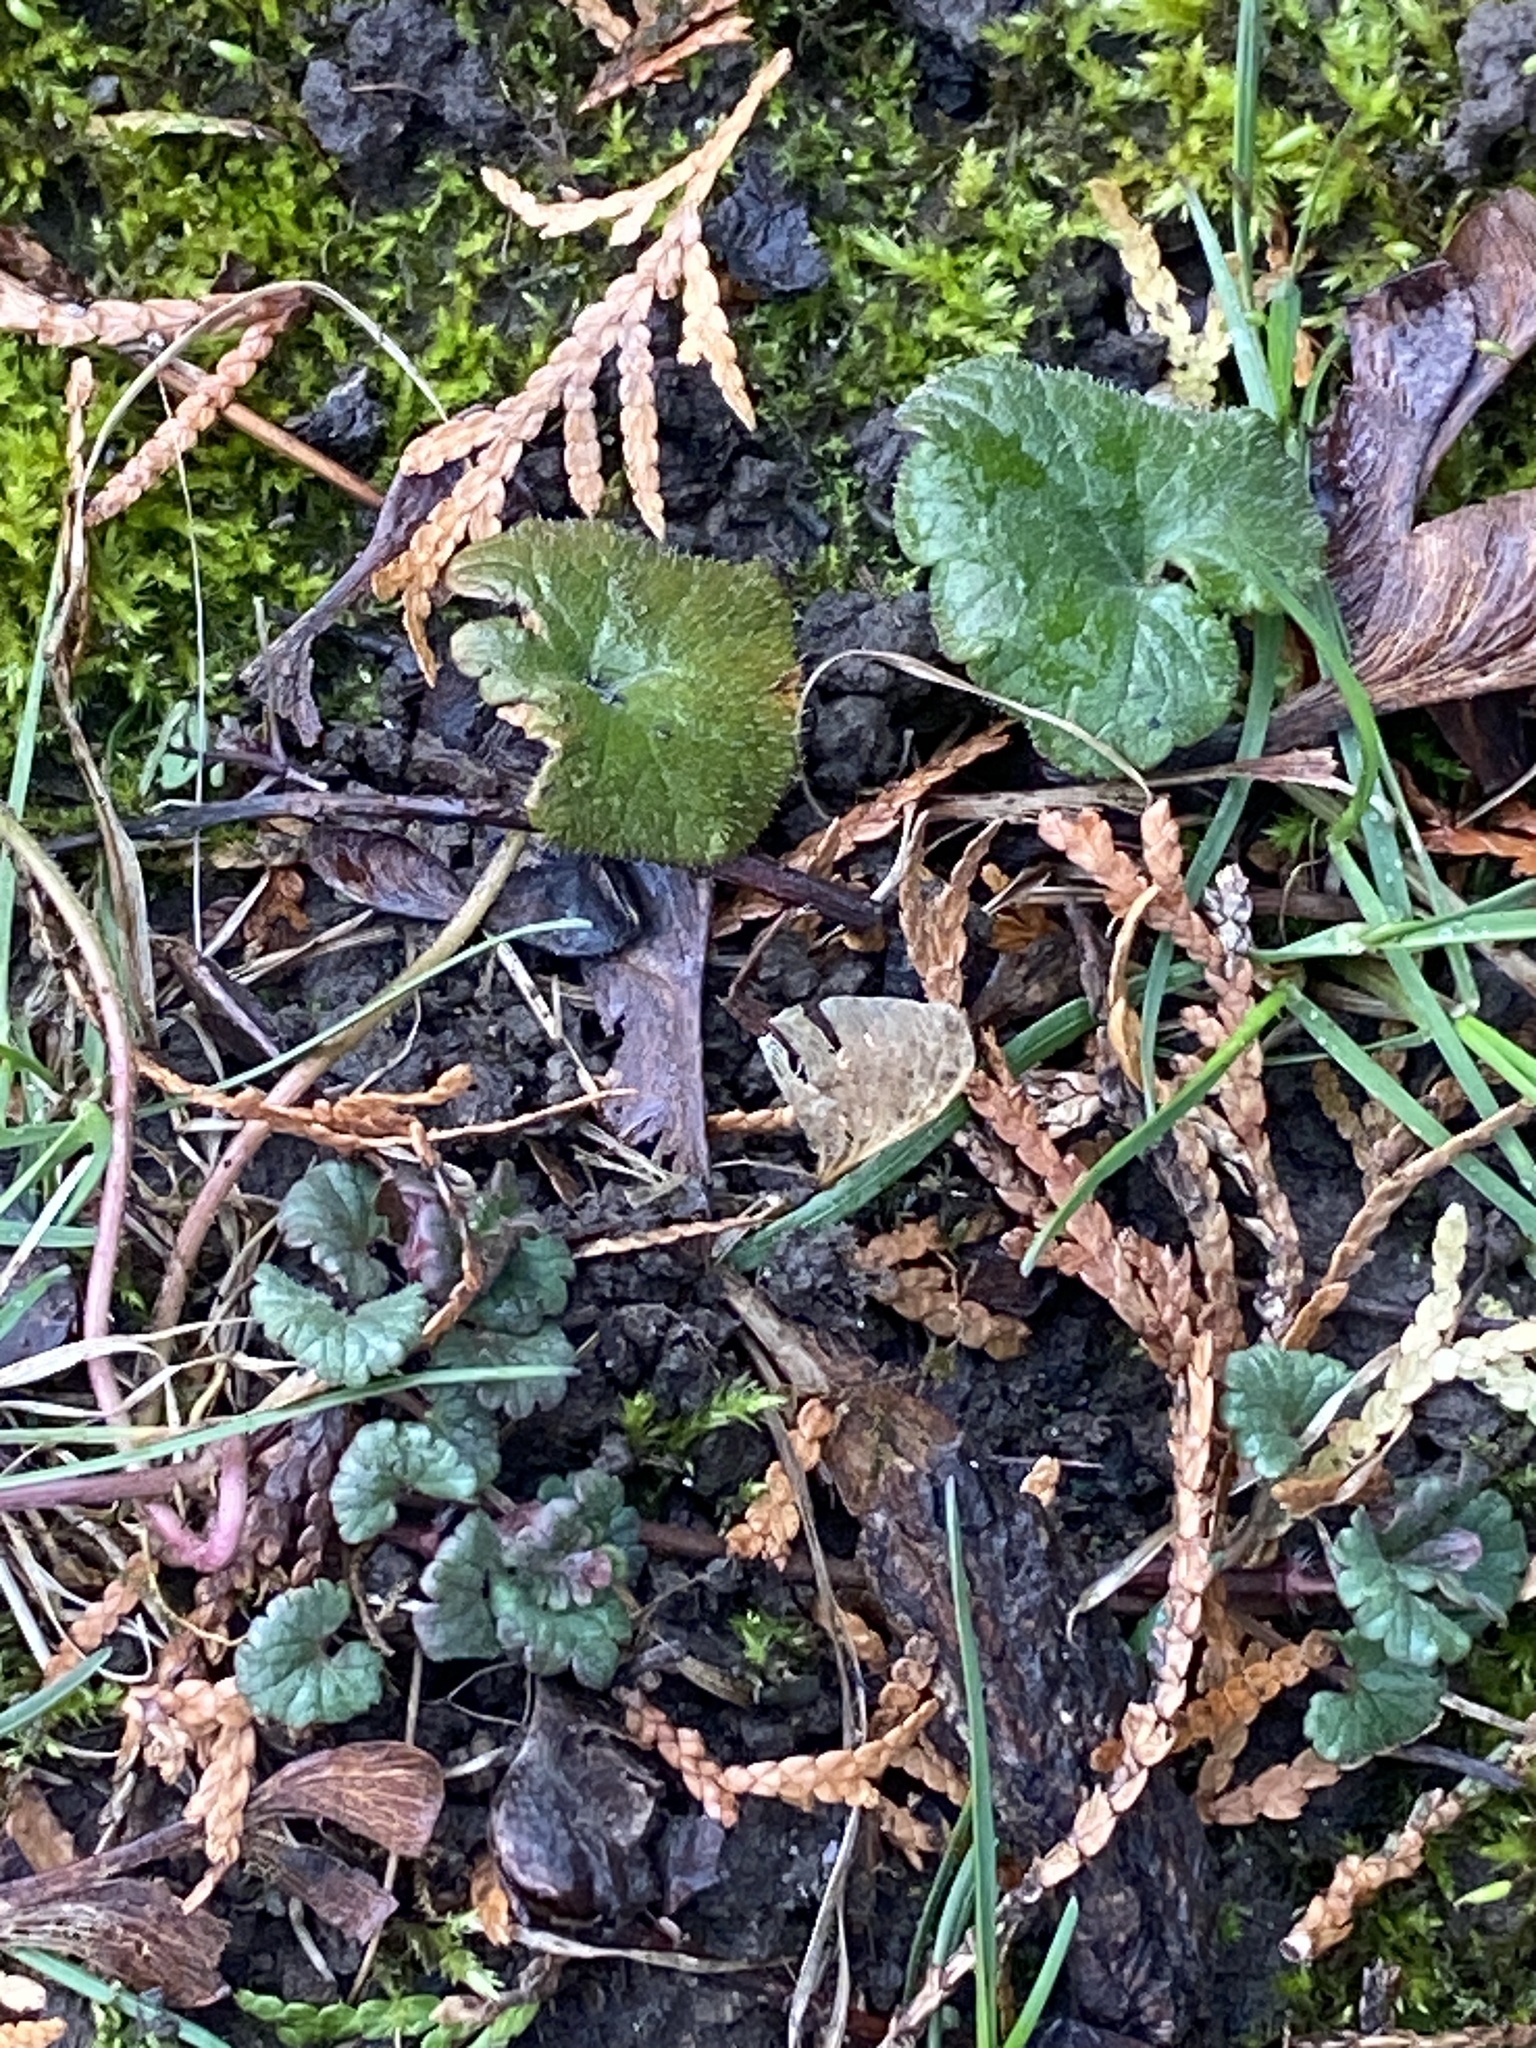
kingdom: Plantae
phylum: Tracheophyta
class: Magnoliopsida
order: Lamiales
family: Lamiaceae
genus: Glechoma
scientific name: Glechoma hederacea
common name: Ground ivy
